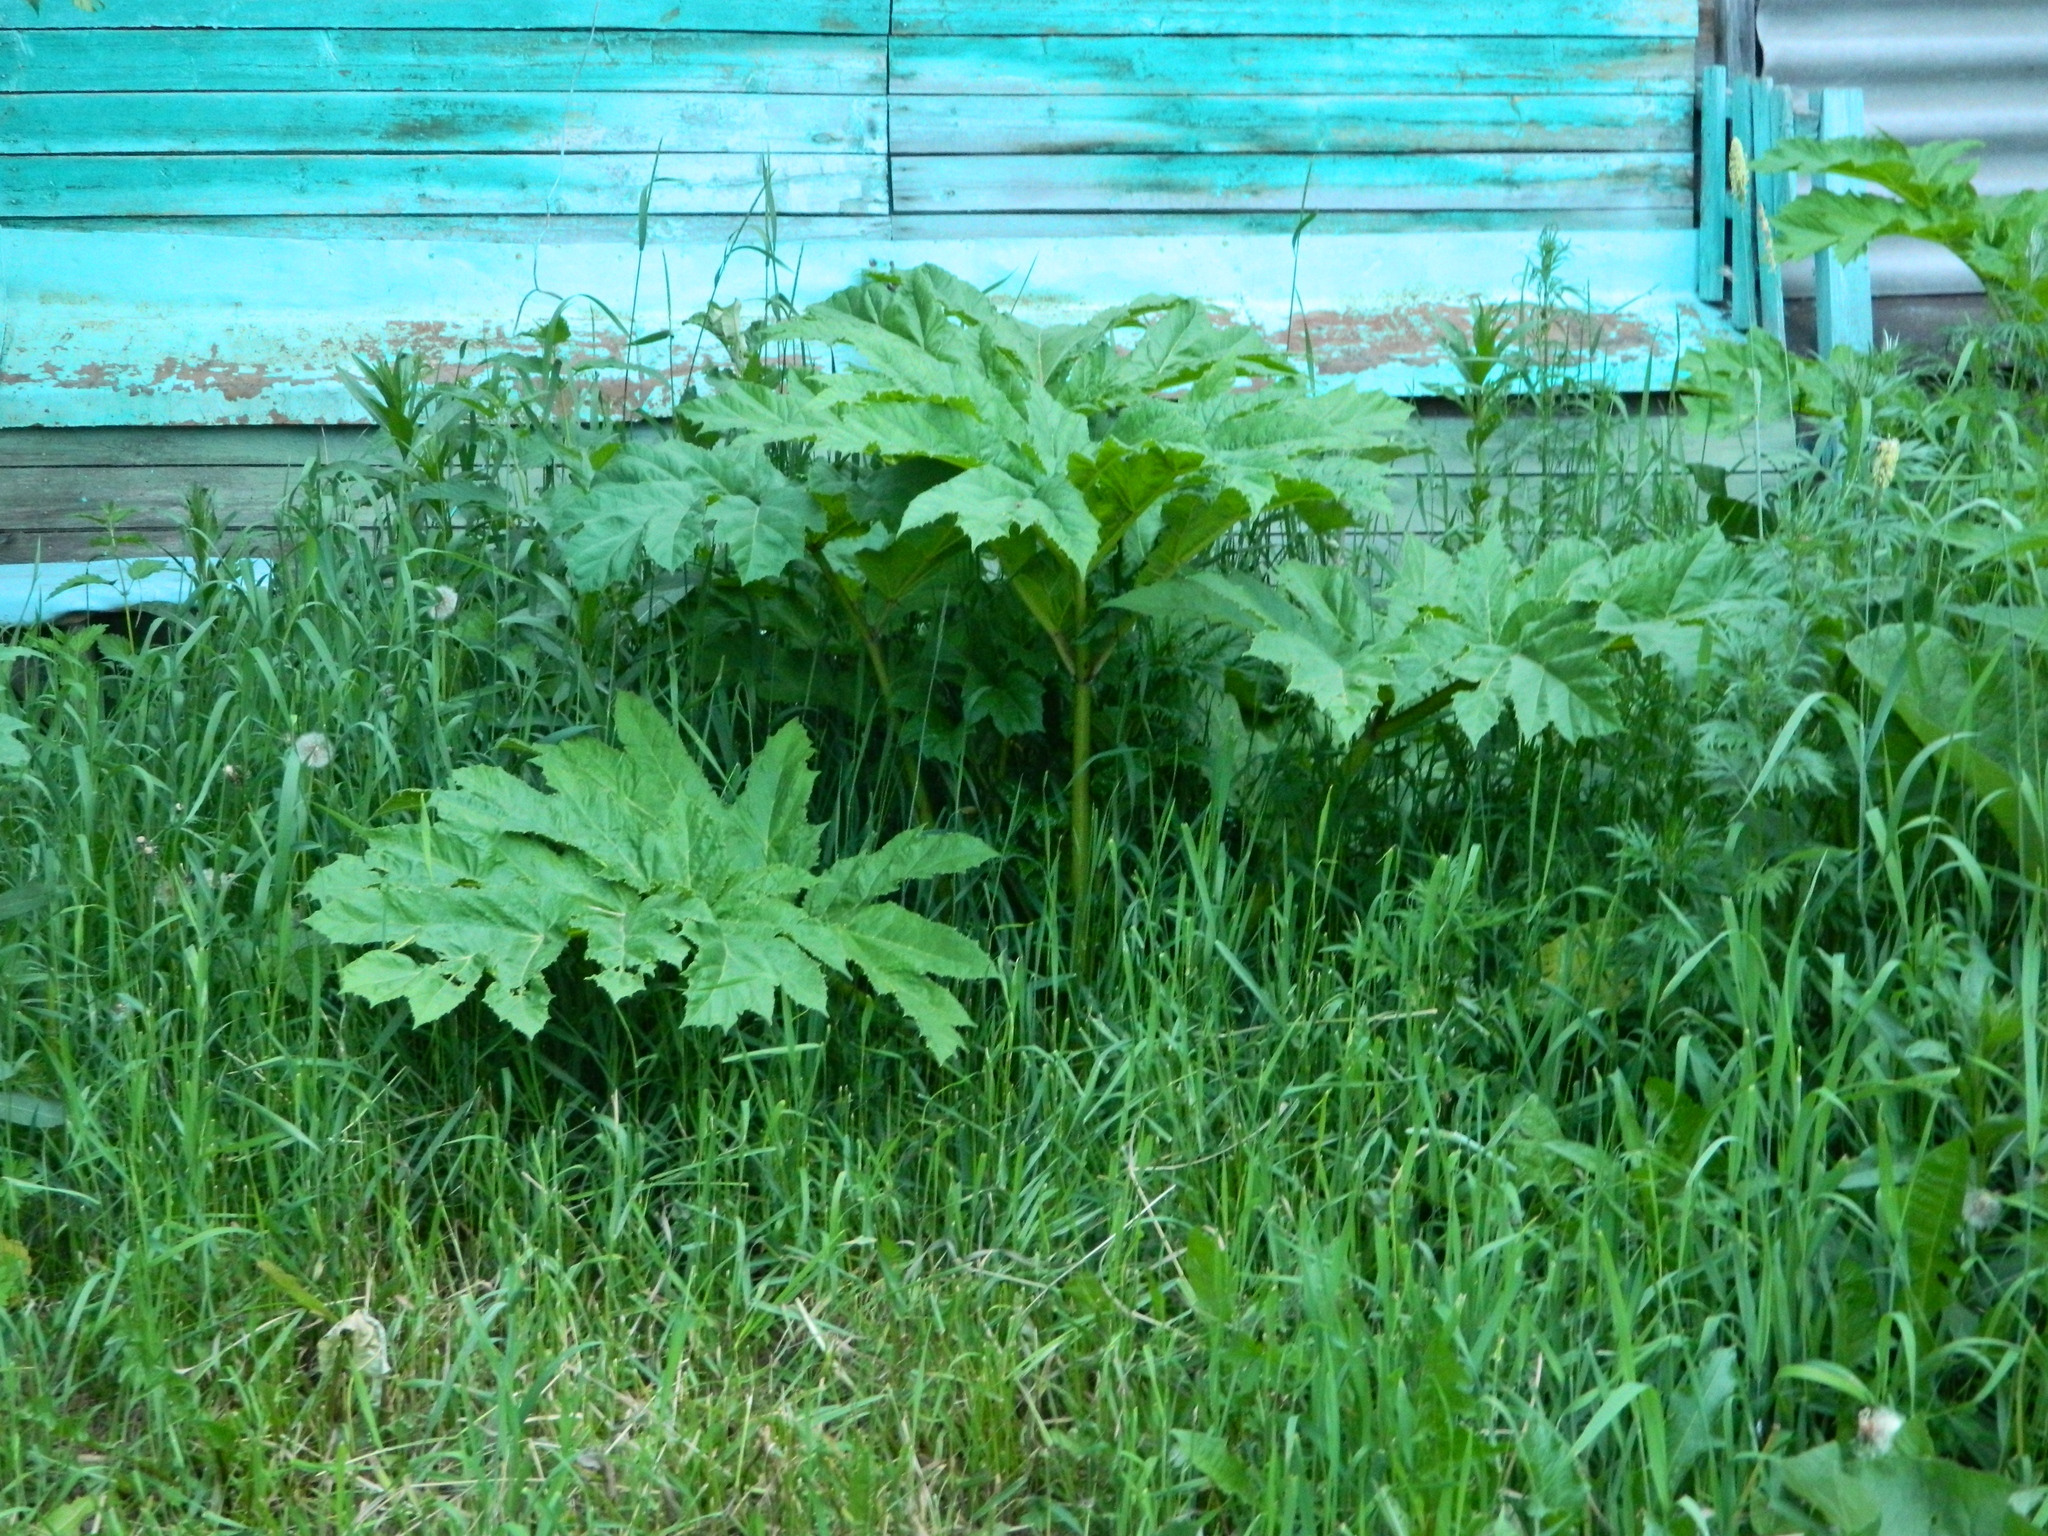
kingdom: Plantae
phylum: Tracheophyta
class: Magnoliopsida
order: Apiales
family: Apiaceae
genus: Heracleum
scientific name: Heracleum sosnowskyi
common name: Sosnowsky's hogweed
